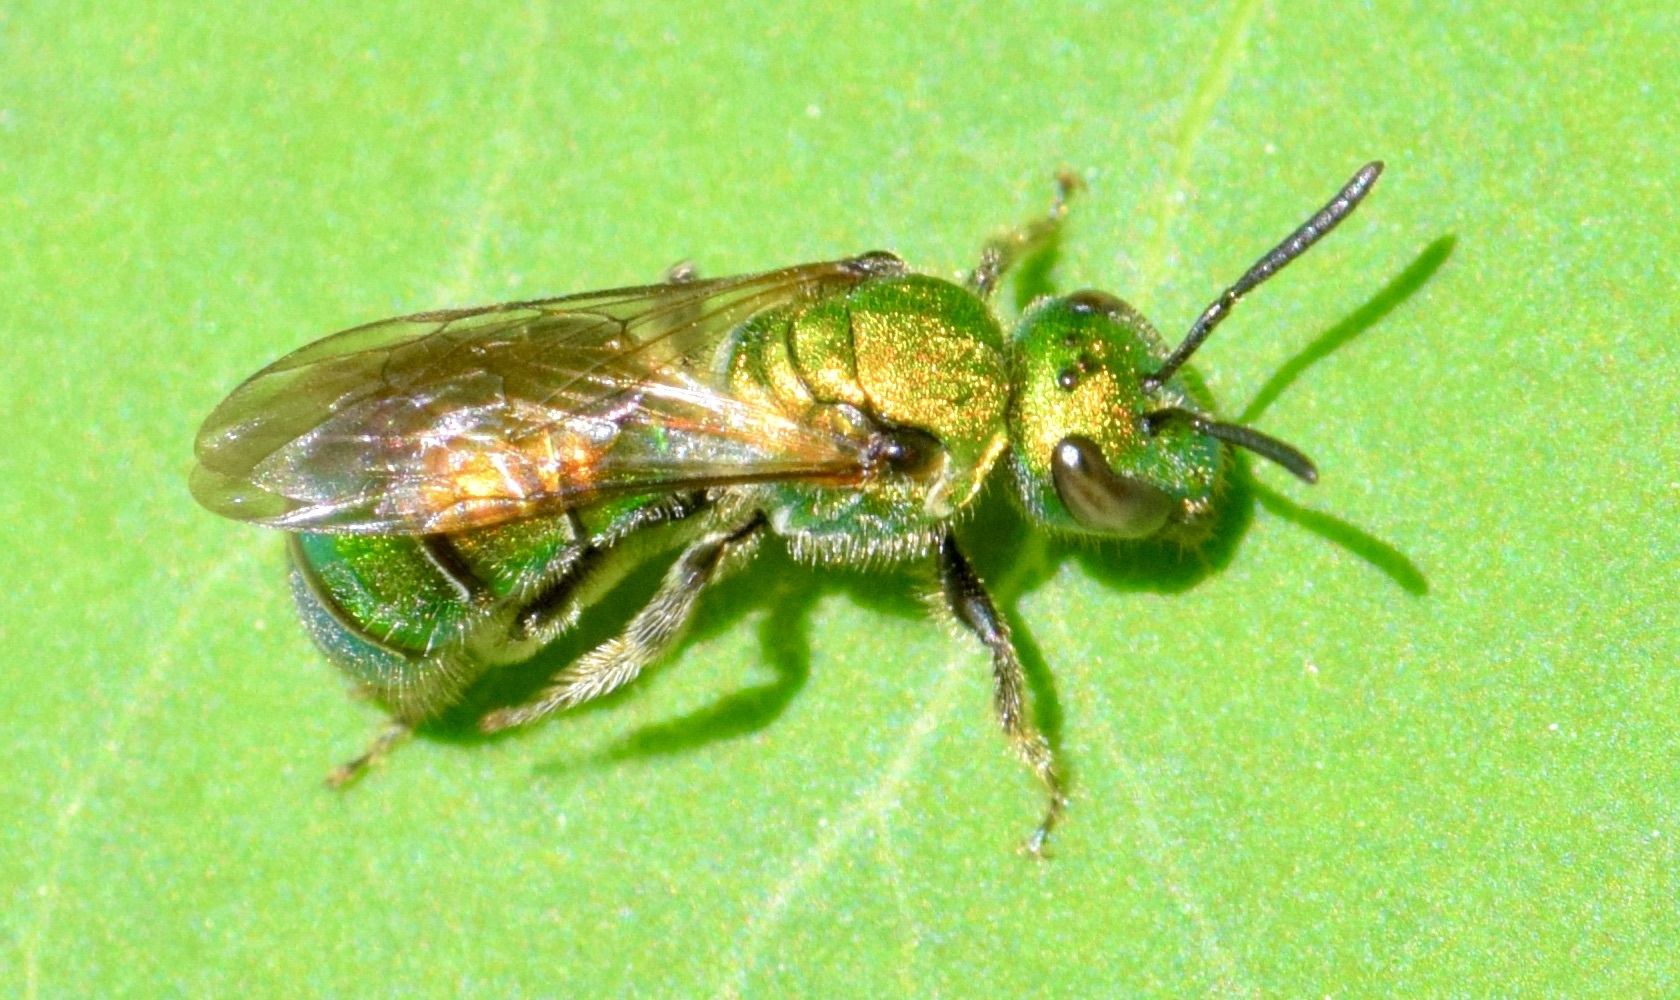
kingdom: Animalia
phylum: Arthropoda
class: Insecta
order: Hymenoptera
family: Halictidae
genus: Augochlora
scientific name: Augochlora pura
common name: Pure green sweat bee
